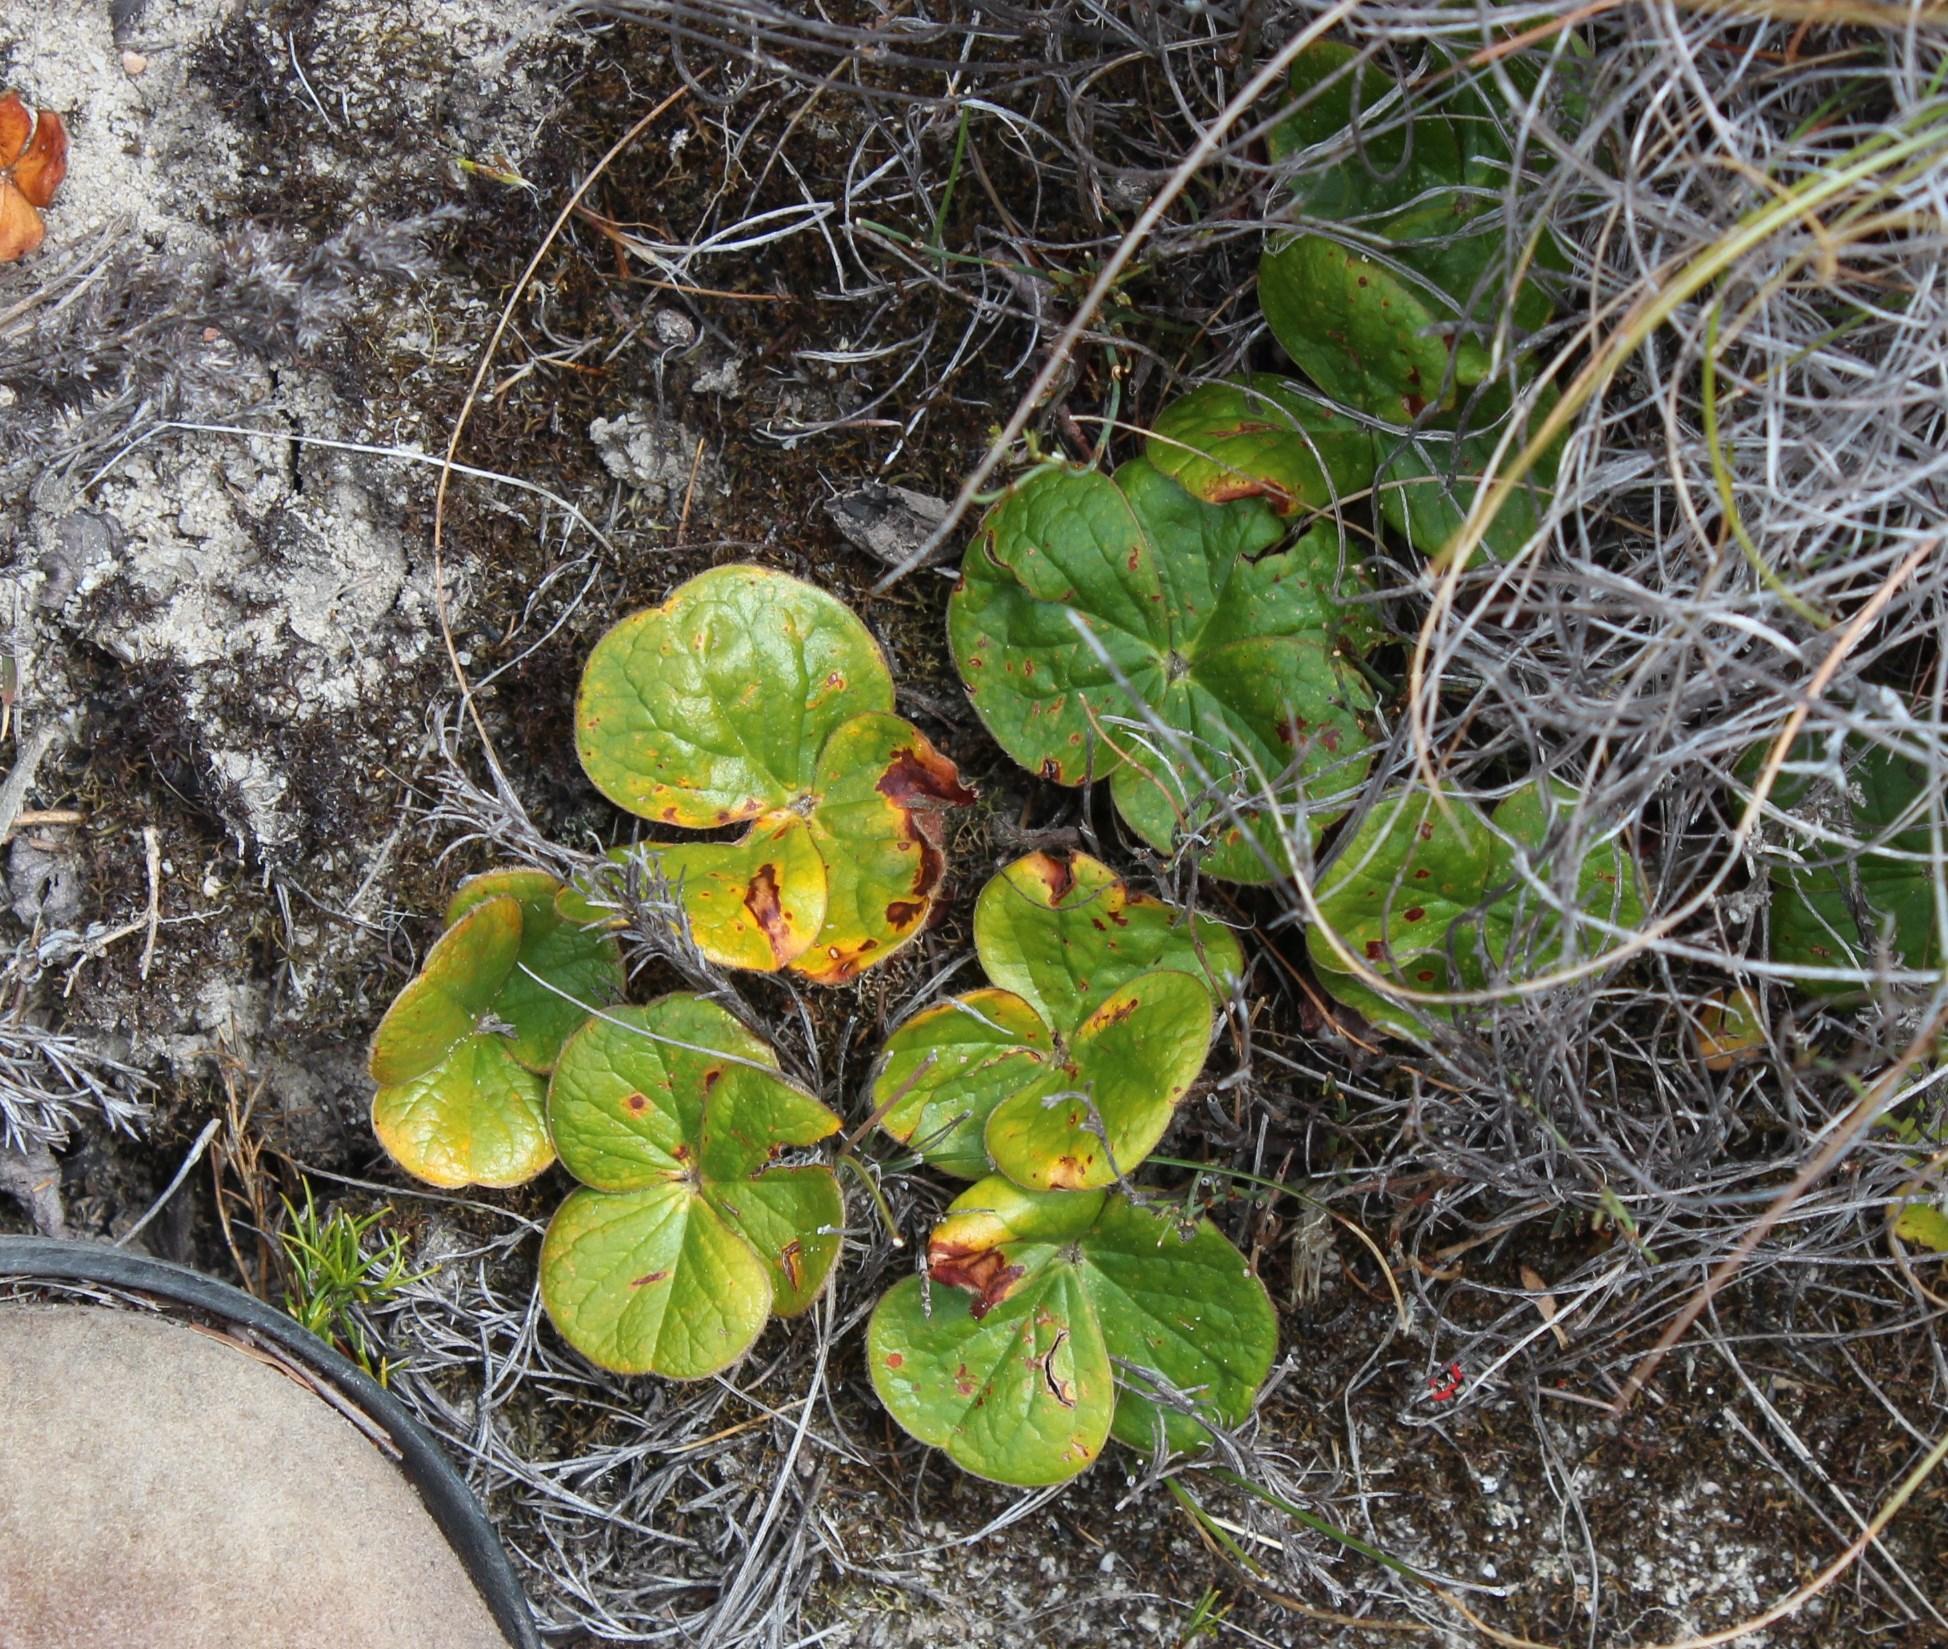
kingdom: Plantae
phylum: Tracheophyta
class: Magnoliopsida
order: Oxalidales
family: Oxalidaceae
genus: Oxalis
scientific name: Oxalis truncatula
